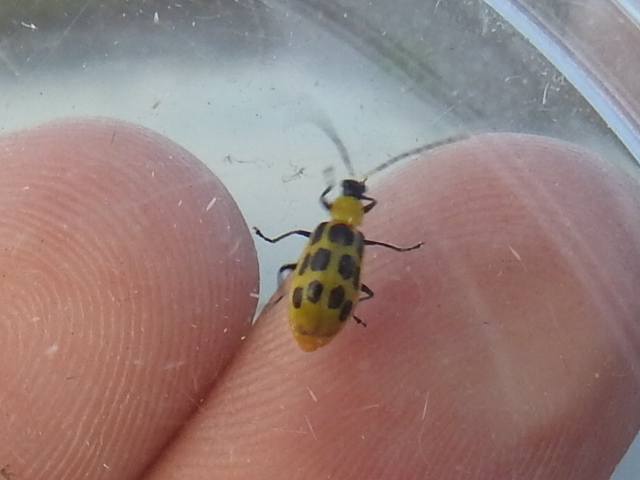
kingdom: Animalia
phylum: Arthropoda
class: Insecta
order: Coleoptera
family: Chrysomelidae
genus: Diabrotica
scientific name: Diabrotica undecimpunctata
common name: Spotted cucumber beetle
